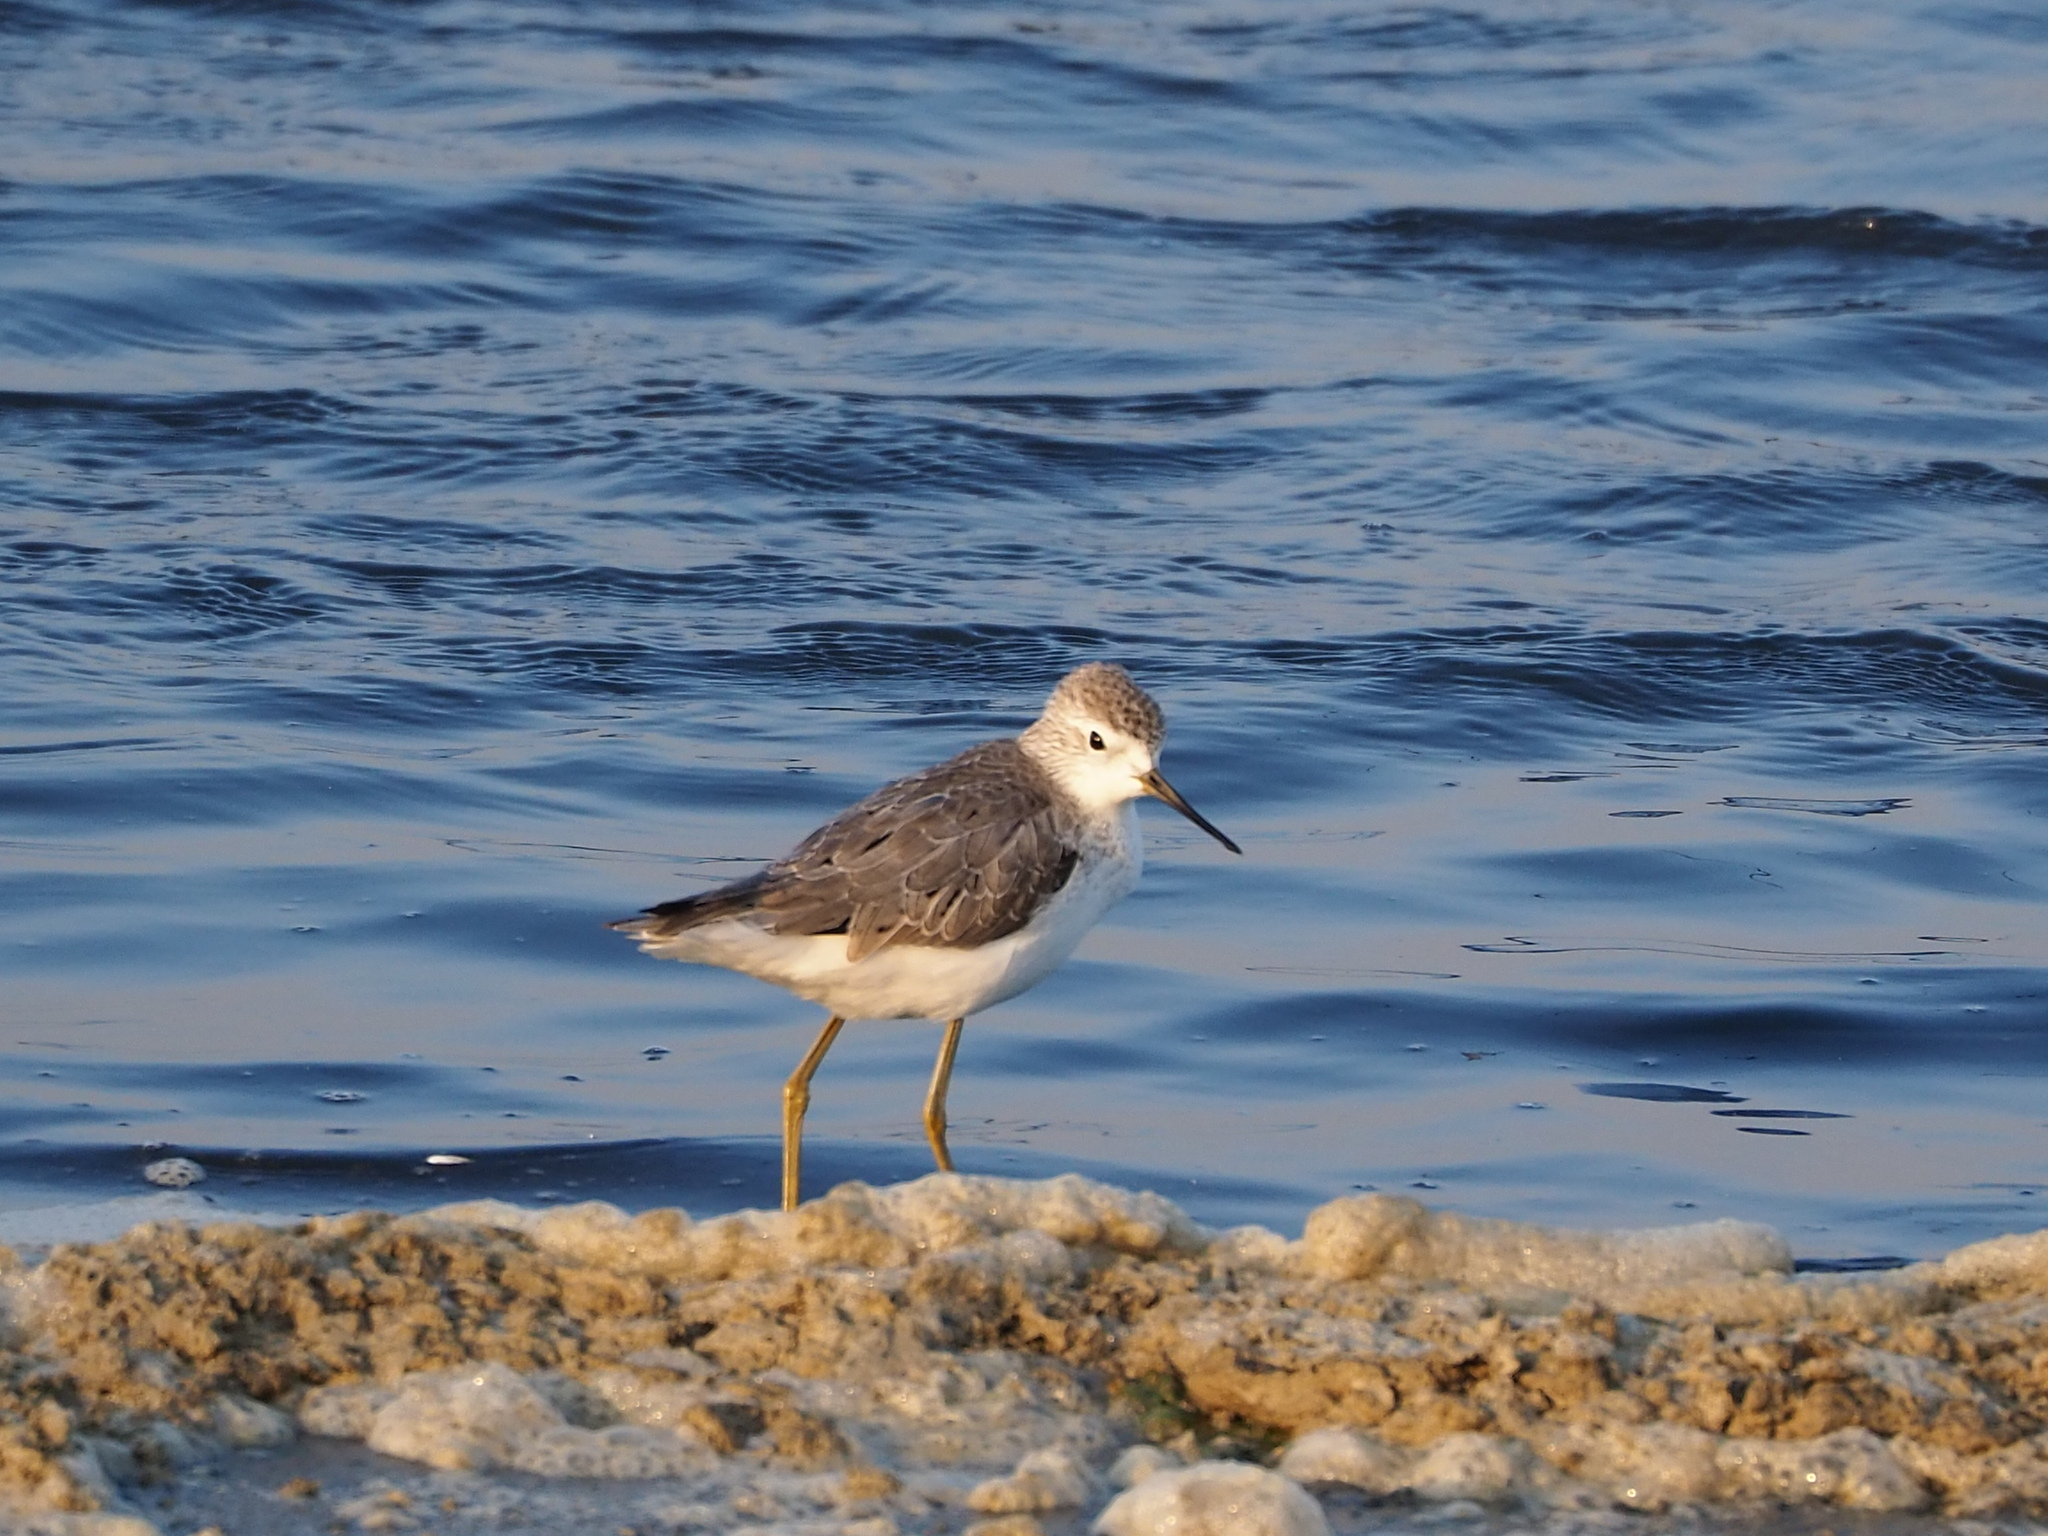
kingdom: Animalia
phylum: Chordata
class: Aves
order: Charadriiformes
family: Scolopacidae
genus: Tringa
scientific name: Tringa stagnatilis
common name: Marsh sandpiper
